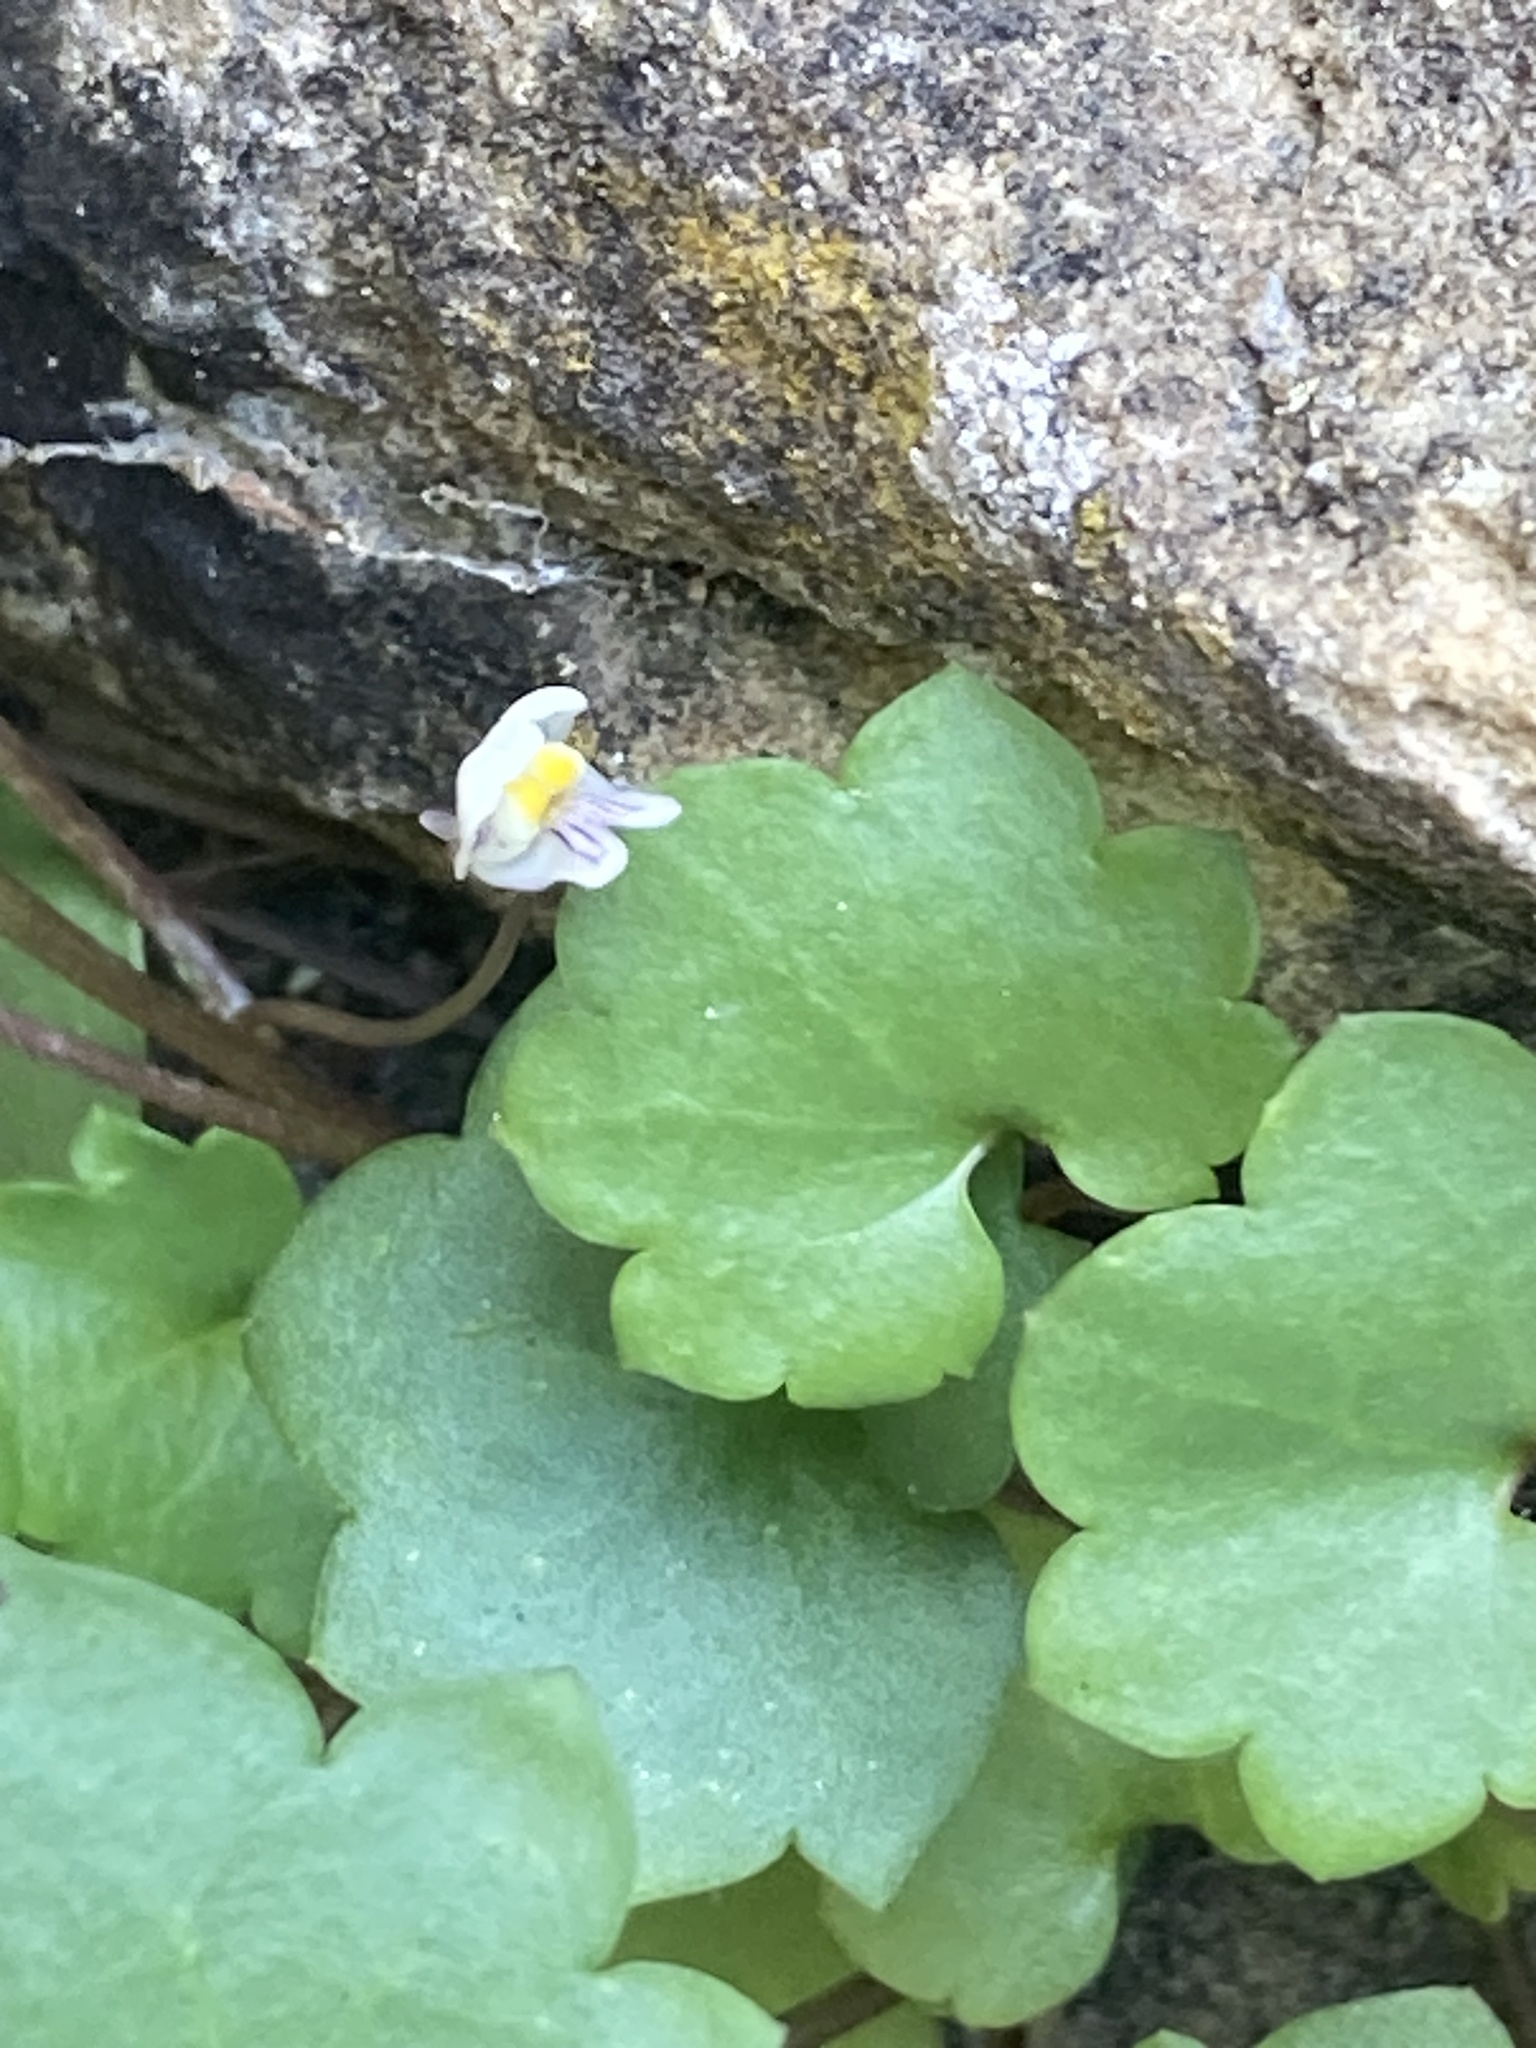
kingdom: Plantae
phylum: Tracheophyta
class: Magnoliopsida
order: Lamiales
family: Plantaginaceae
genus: Cymbalaria
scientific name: Cymbalaria muralis
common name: Ivy-leaved toadflax
